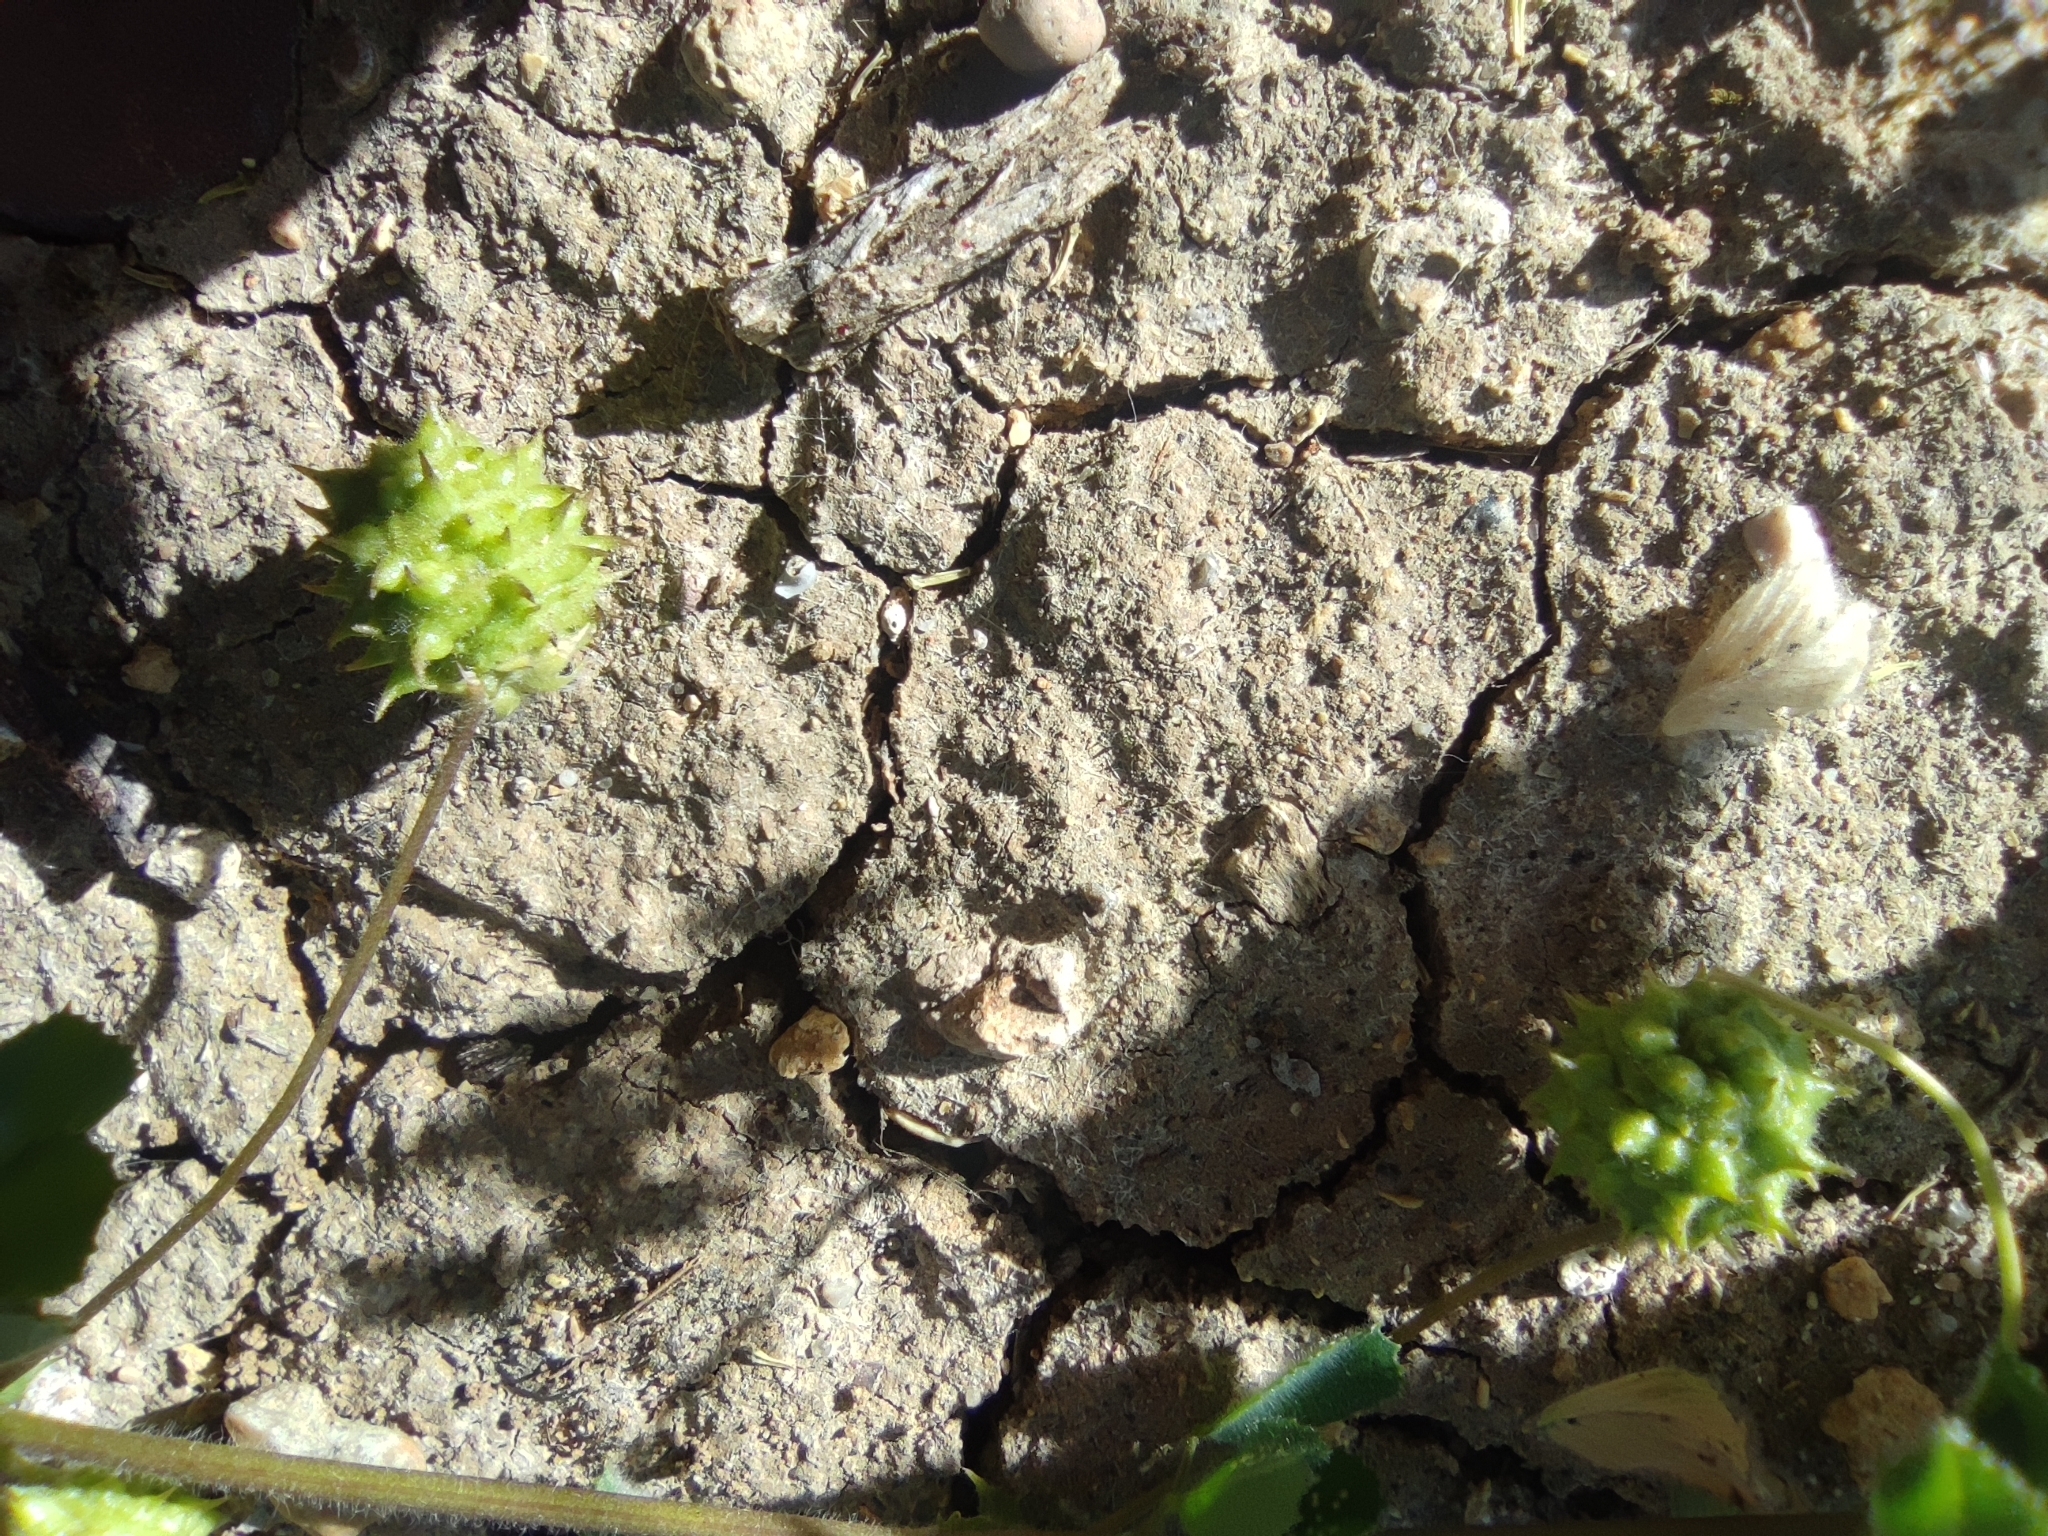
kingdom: Plantae
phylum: Tracheophyta
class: Magnoliopsida
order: Fabales
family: Fabaceae
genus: Medicago
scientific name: Medicago doliata
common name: Keg medic
